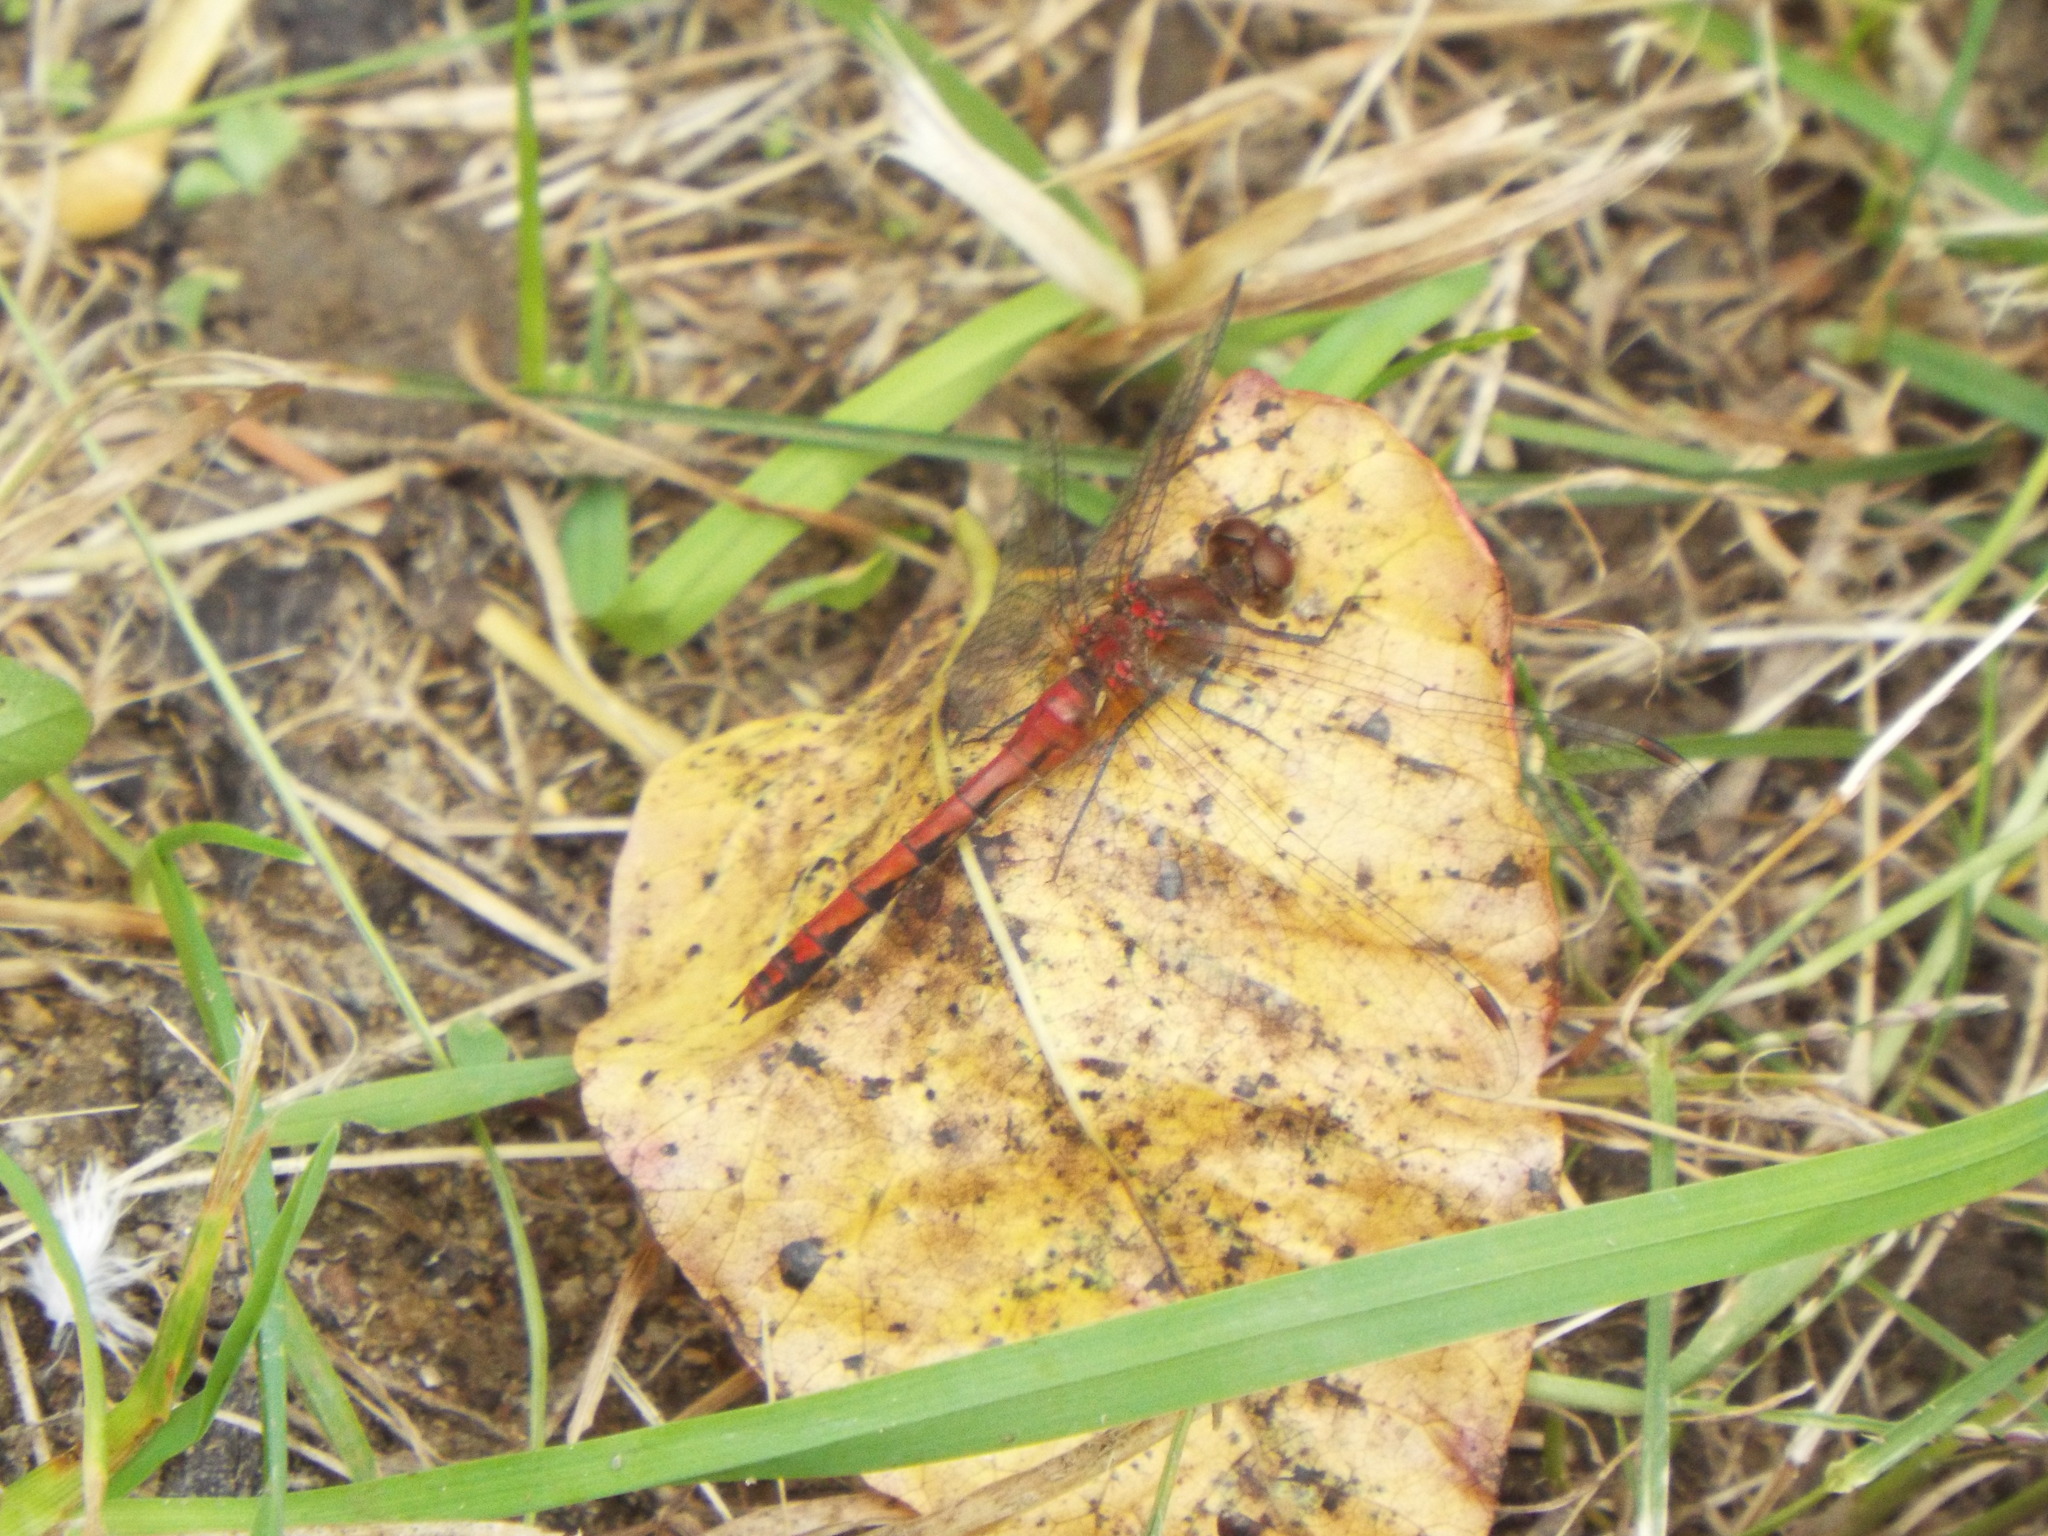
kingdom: Animalia
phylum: Arthropoda
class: Insecta
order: Odonata
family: Libellulidae
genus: Sympetrum
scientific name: Sympetrum
